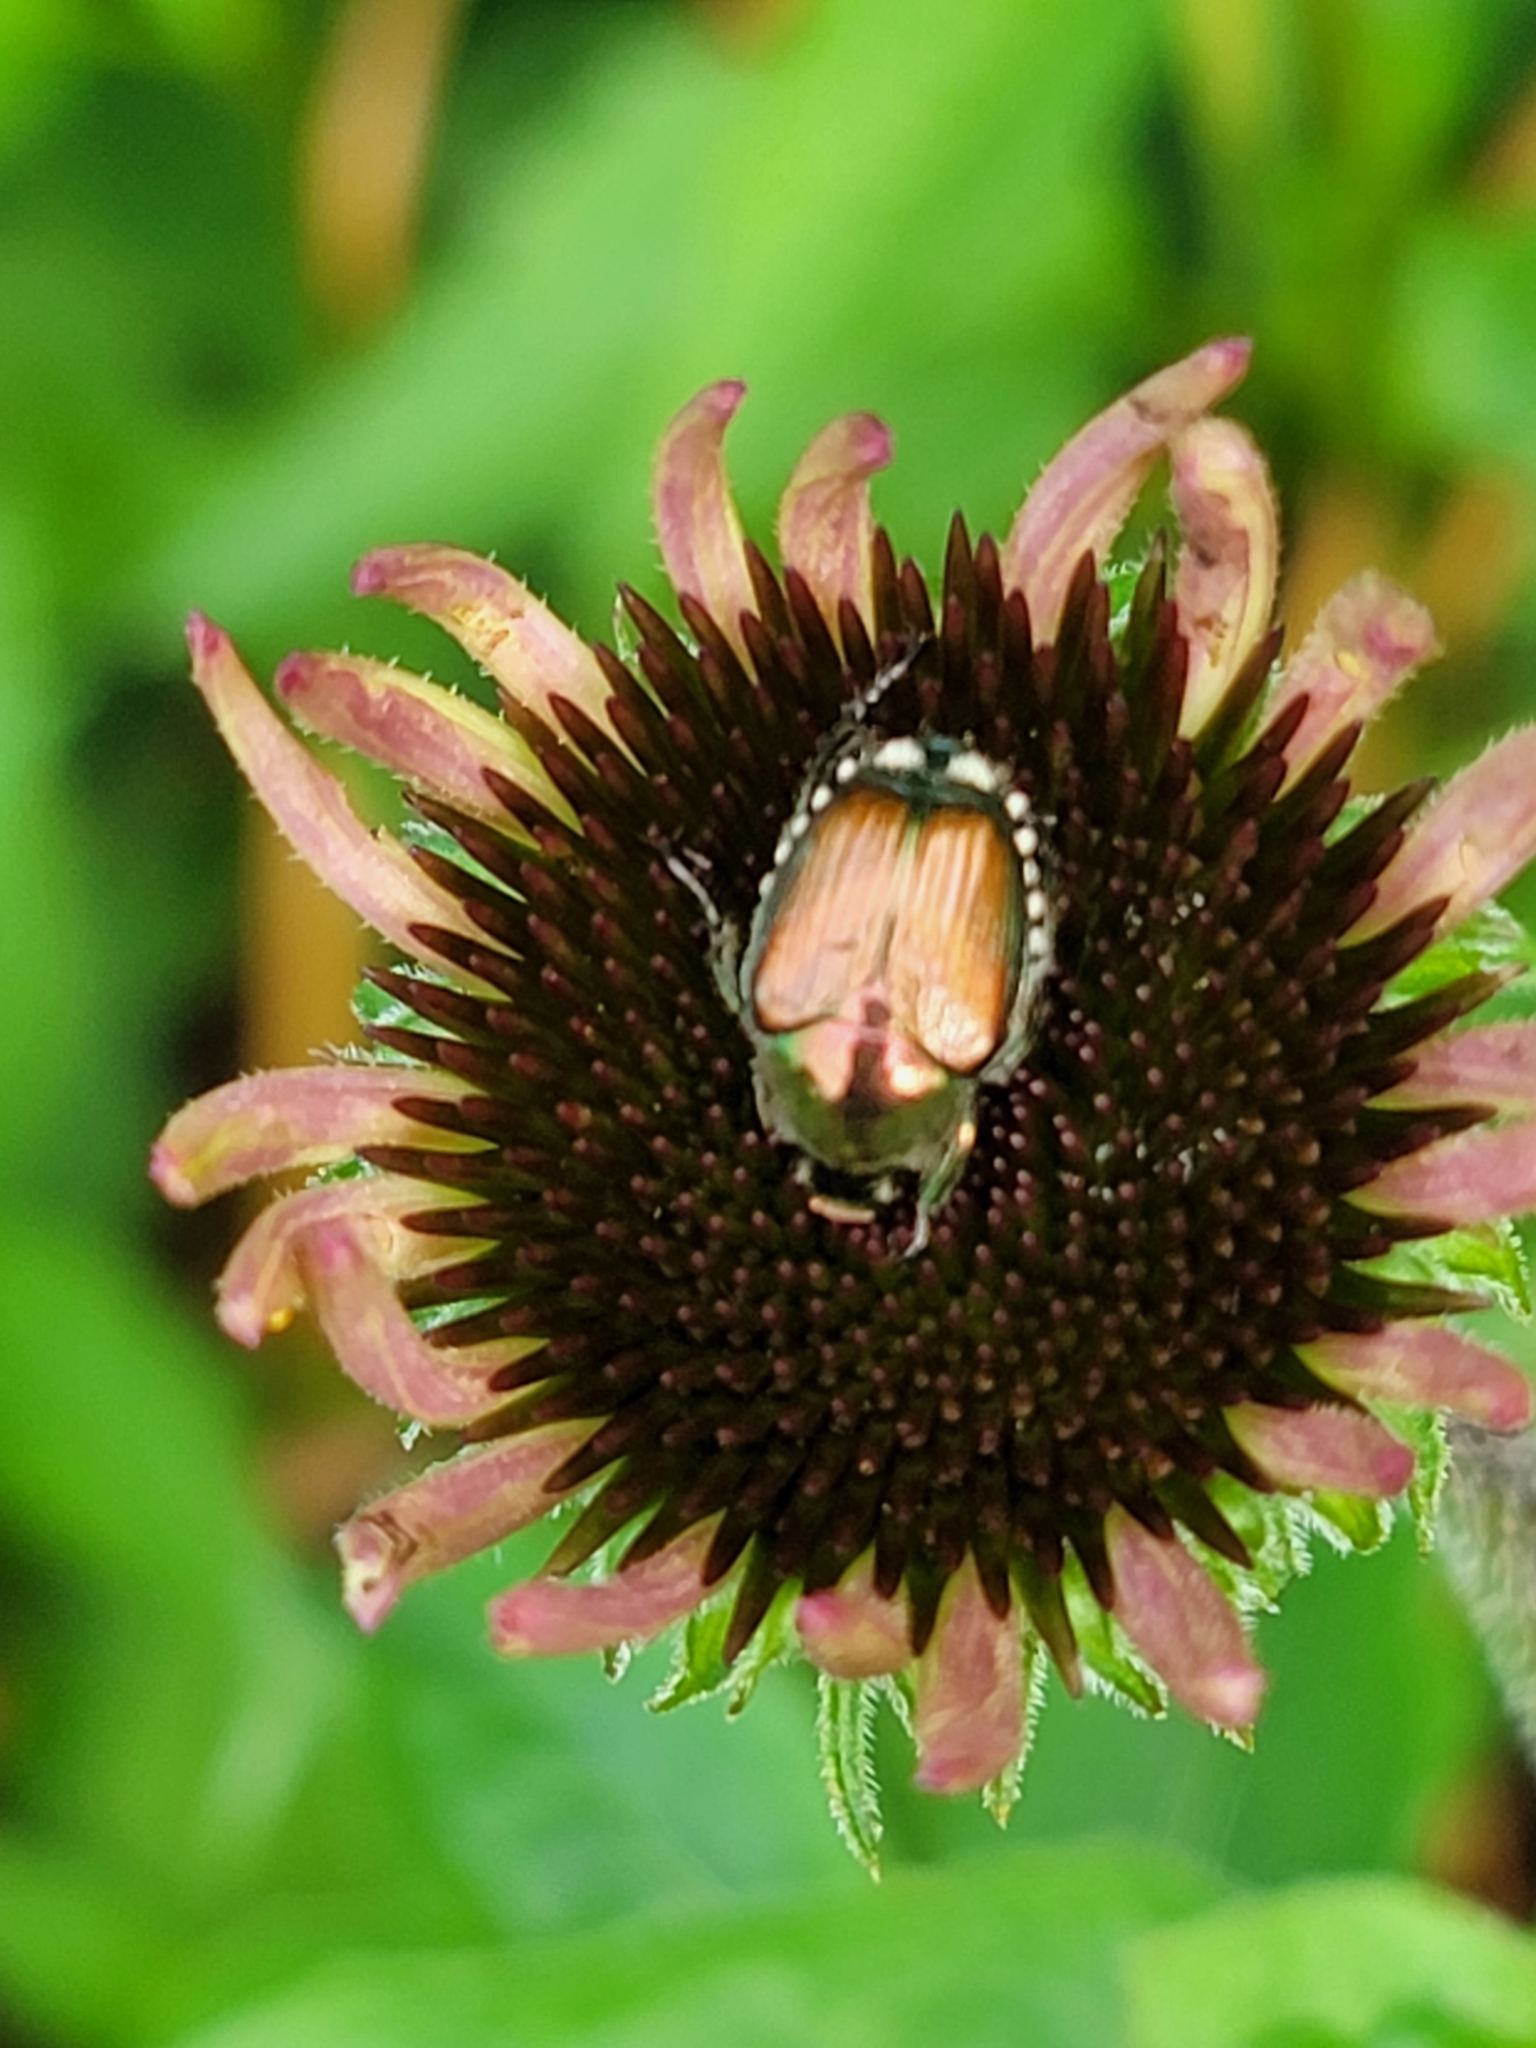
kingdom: Animalia
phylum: Arthropoda
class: Insecta
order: Coleoptera
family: Scarabaeidae
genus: Popillia
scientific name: Popillia japonica
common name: Japanese beetle
